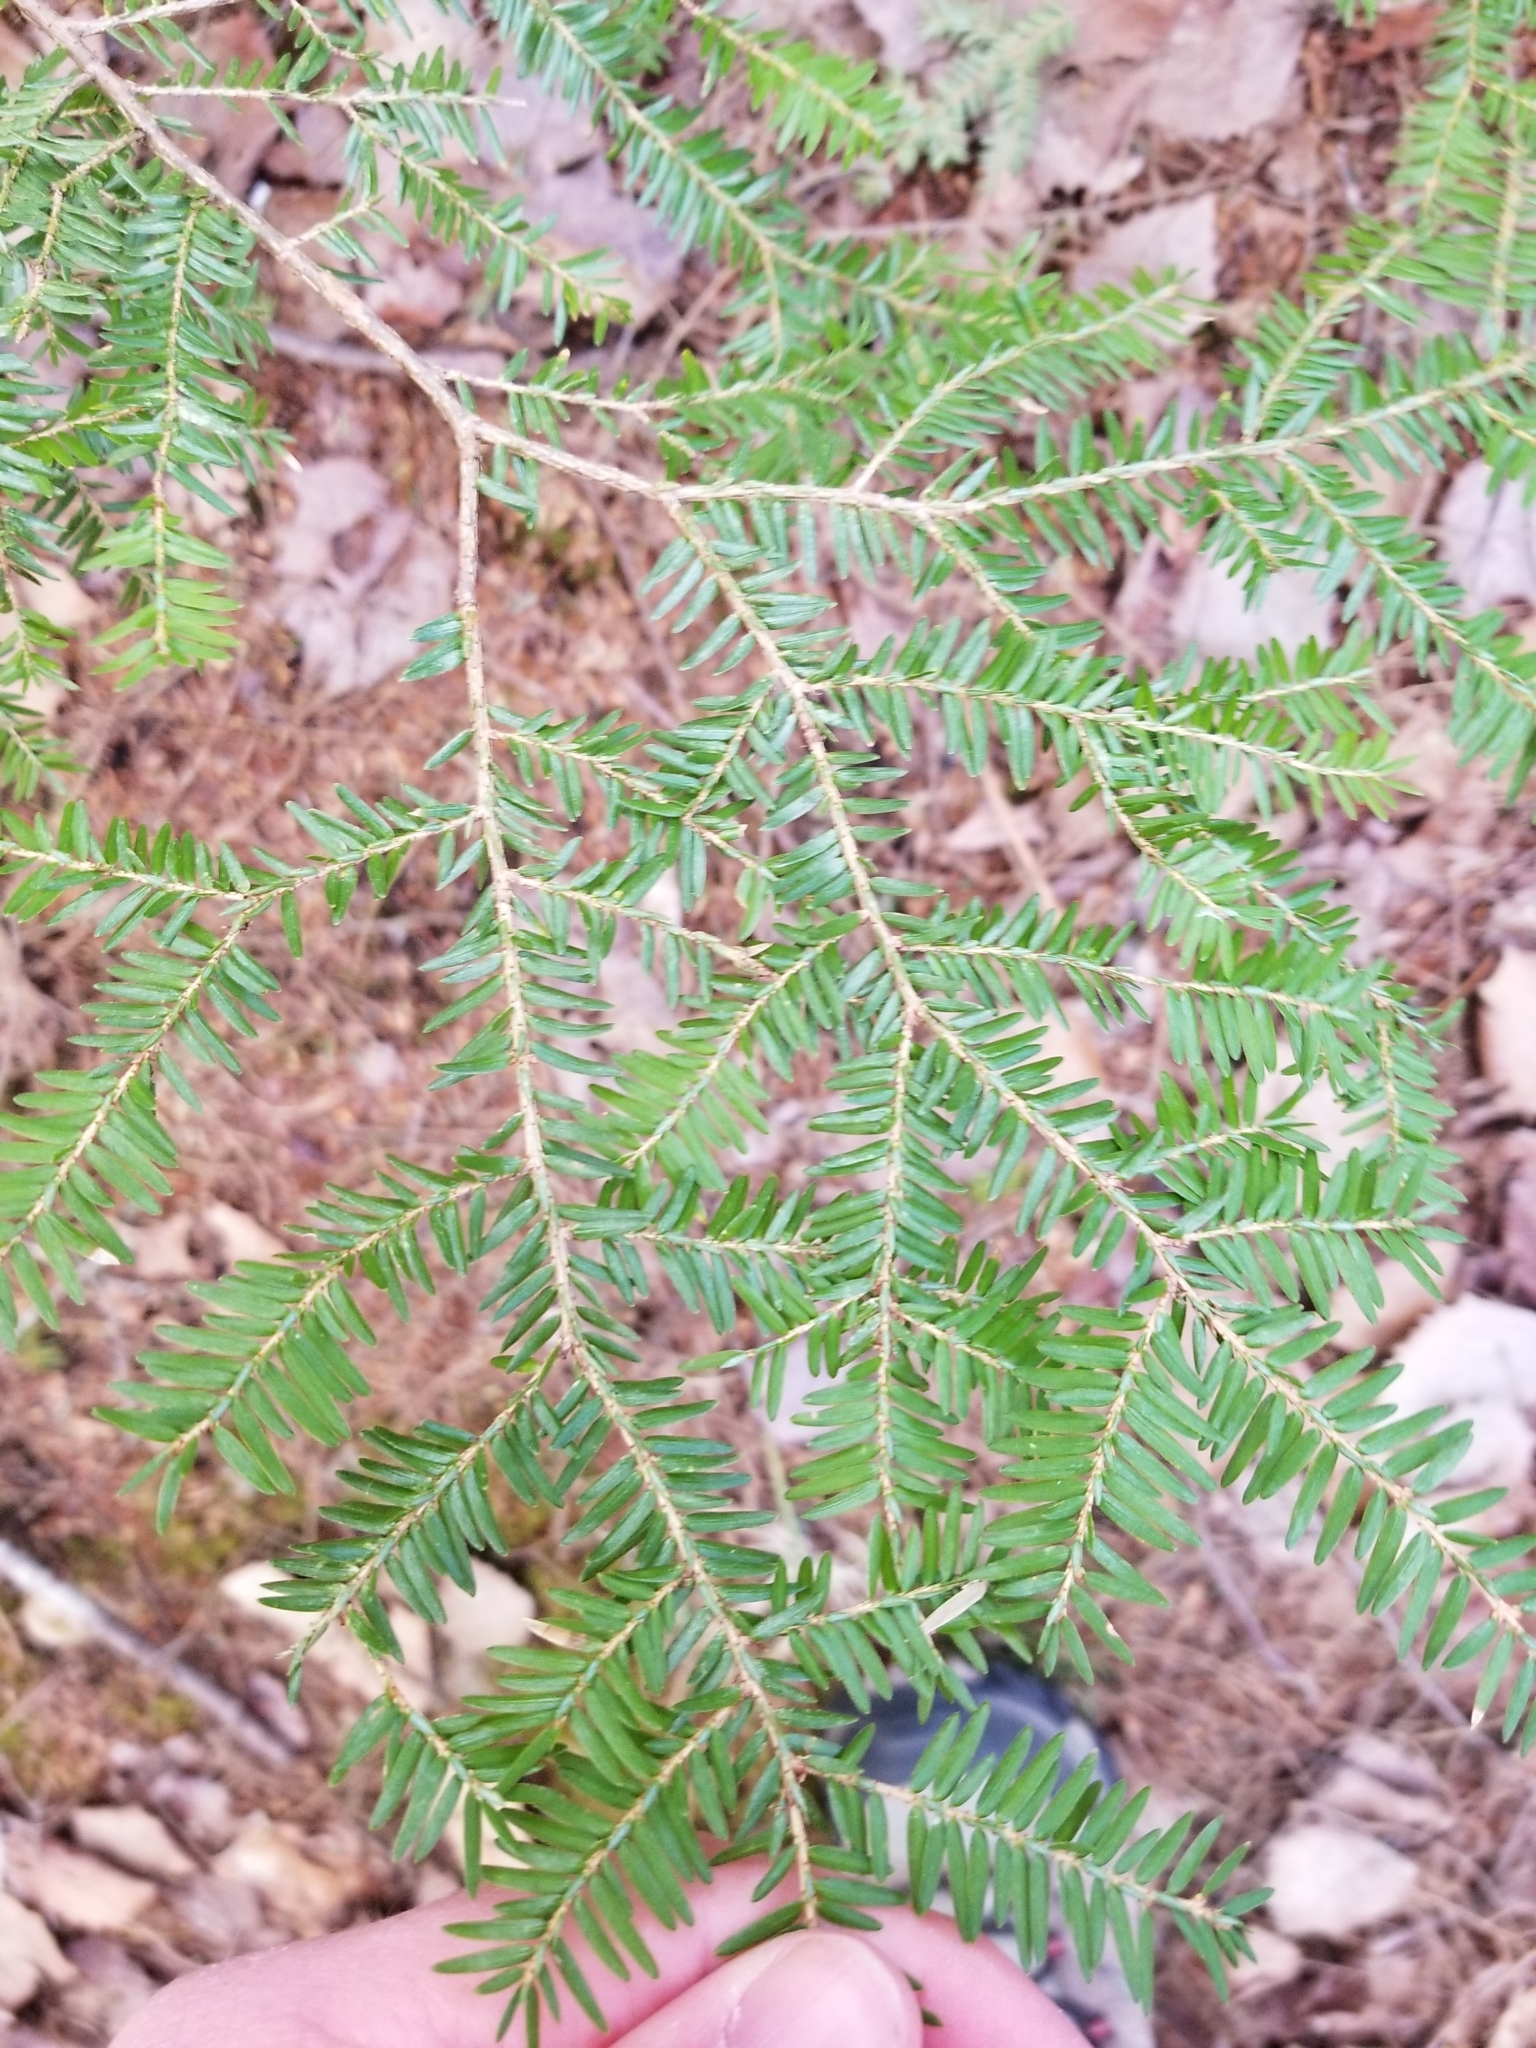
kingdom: Plantae
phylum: Tracheophyta
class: Pinopsida
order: Pinales
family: Pinaceae
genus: Tsuga
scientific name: Tsuga canadensis
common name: Eastern hemlock
